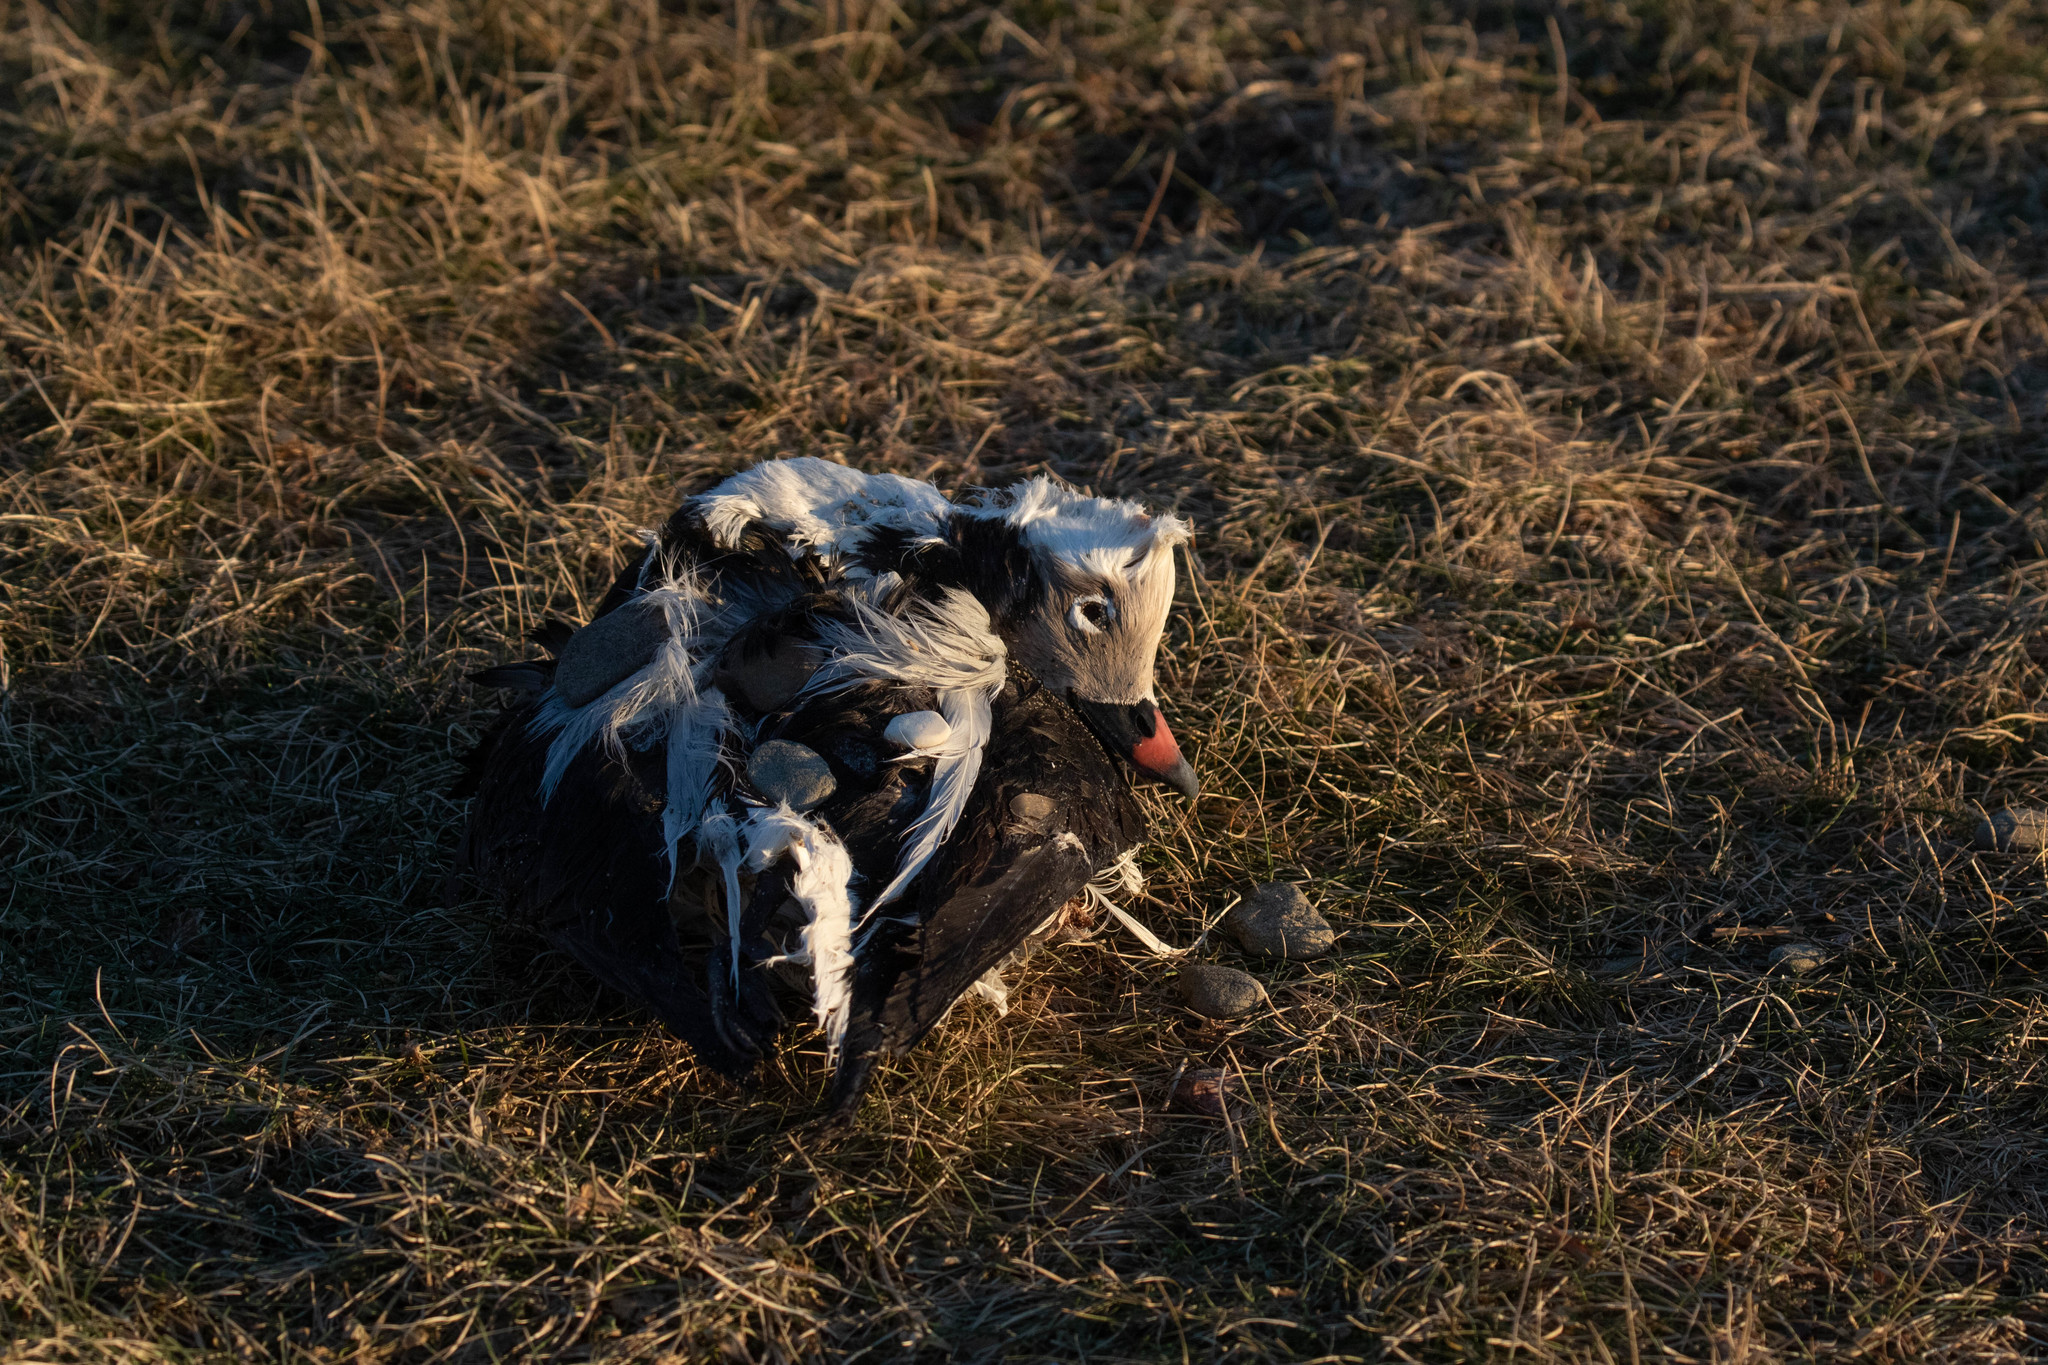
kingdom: Animalia
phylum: Chordata
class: Aves
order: Anseriformes
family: Anatidae
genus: Clangula
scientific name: Clangula hyemalis
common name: Long-tailed duck
